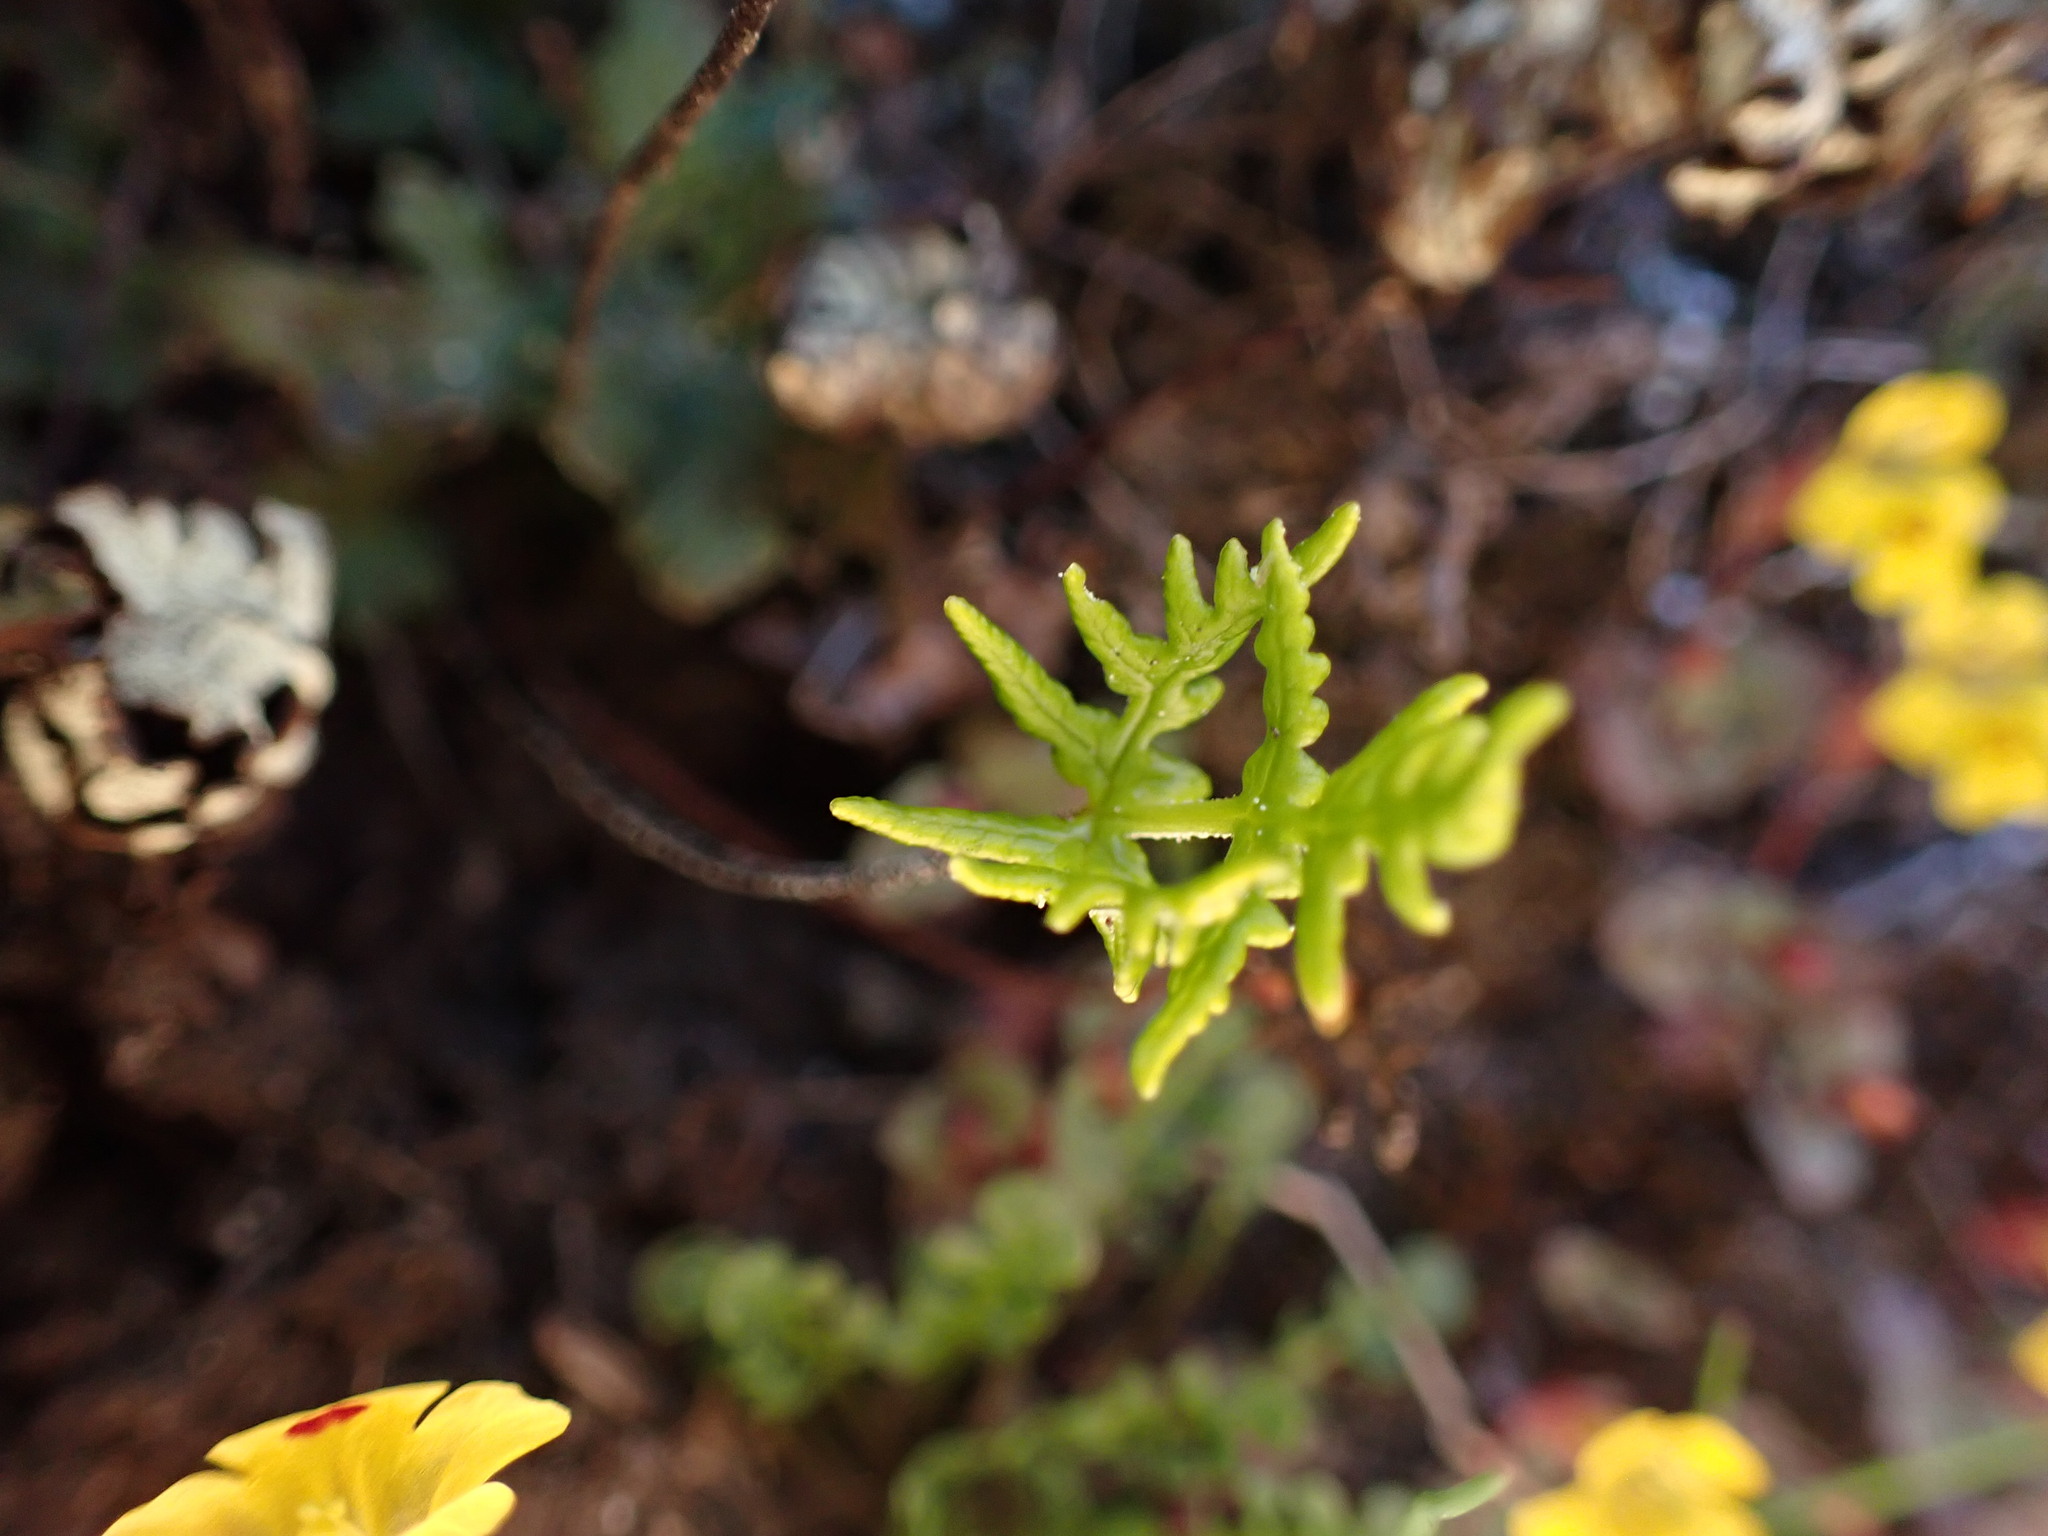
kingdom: Plantae
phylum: Tracheophyta
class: Polypodiopsida
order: Polypodiales
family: Pteridaceae
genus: Pentagramma
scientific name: Pentagramma triangularis
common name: Gold fern
